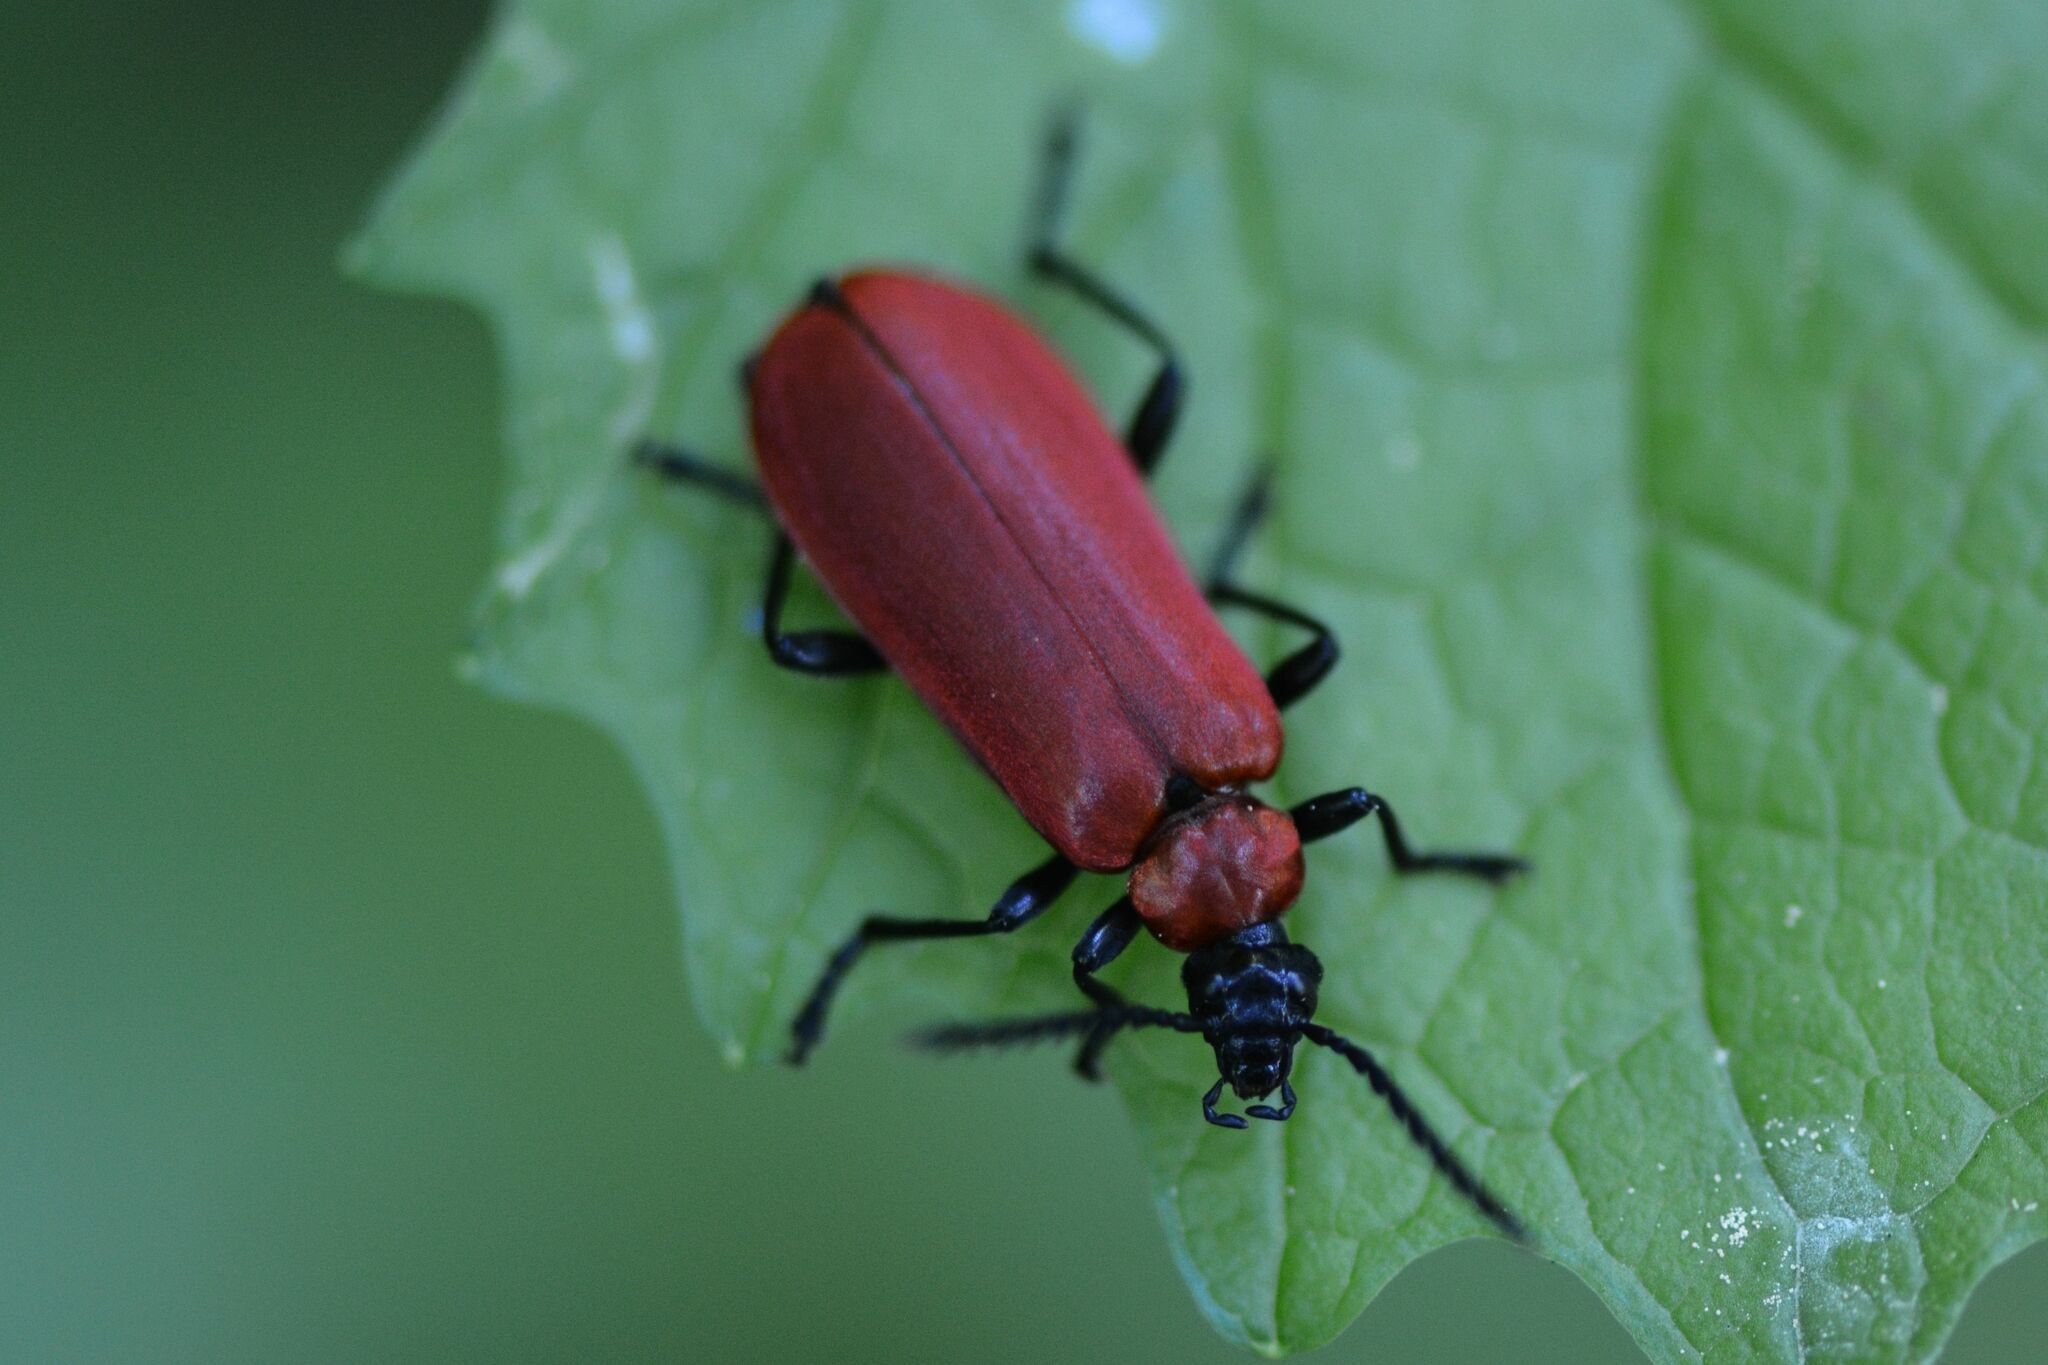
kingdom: Animalia
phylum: Arthropoda
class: Insecta
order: Coleoptera
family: Pyrochroidae
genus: Pyrochroa
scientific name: Pyrochroa coccinea
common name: Black-headed cardinal beetle
